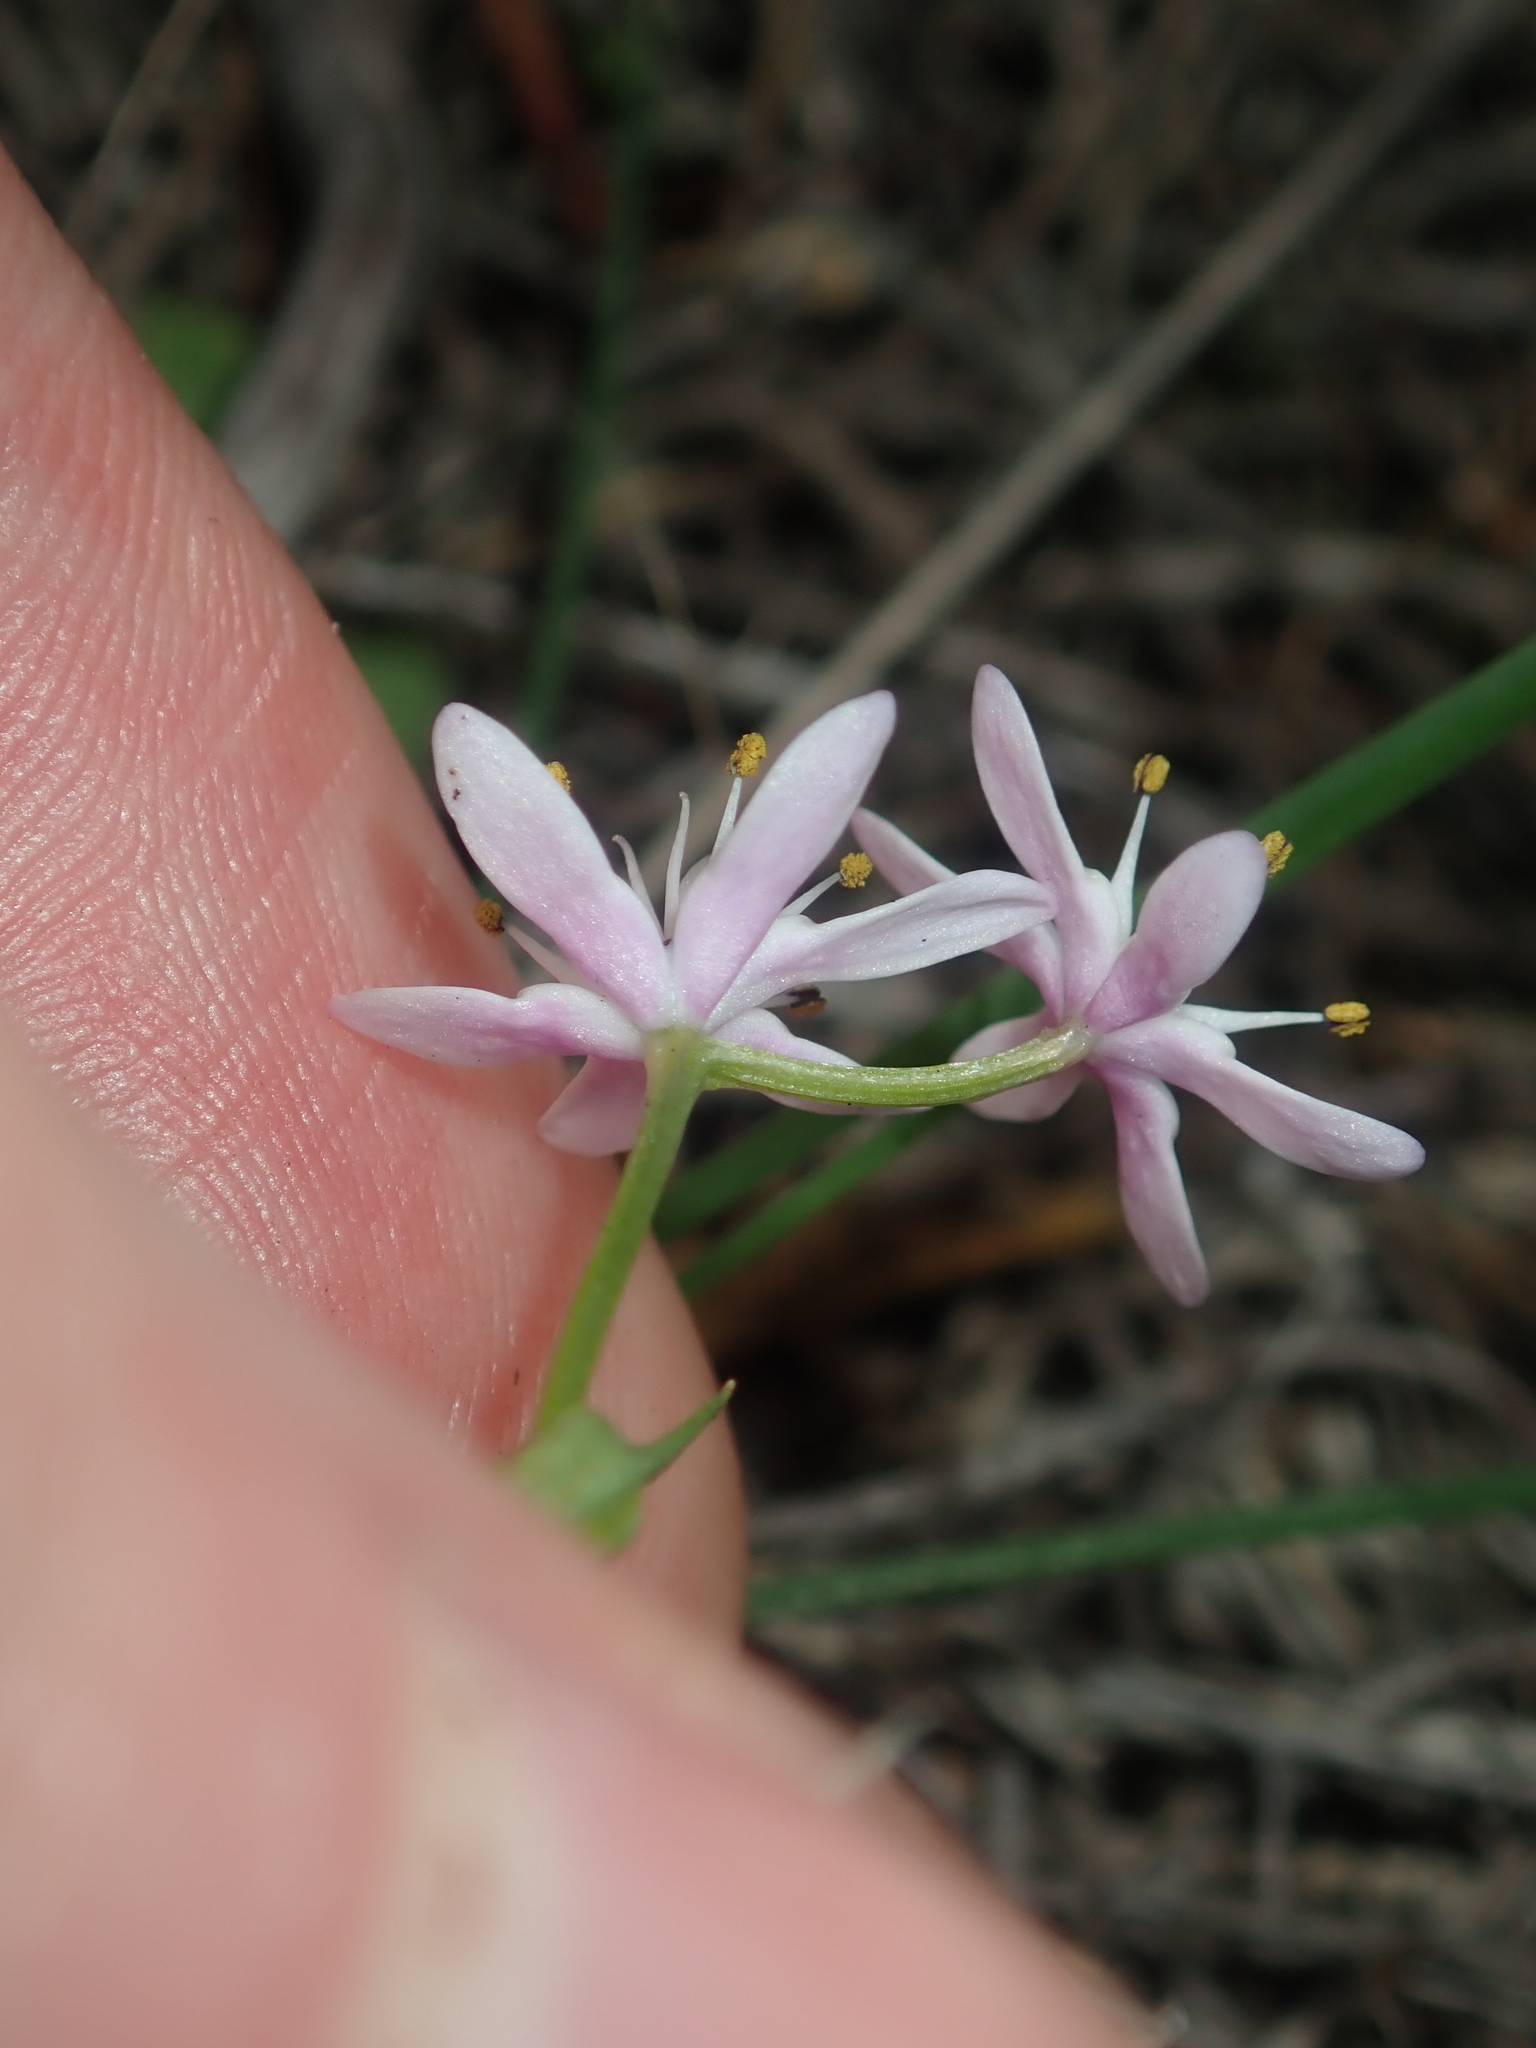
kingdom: Plantae
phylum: Tracheophyta
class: Liliopsida
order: Liliales
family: Colchicaceae
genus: Wurmbea
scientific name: Wurmbea dilatata
